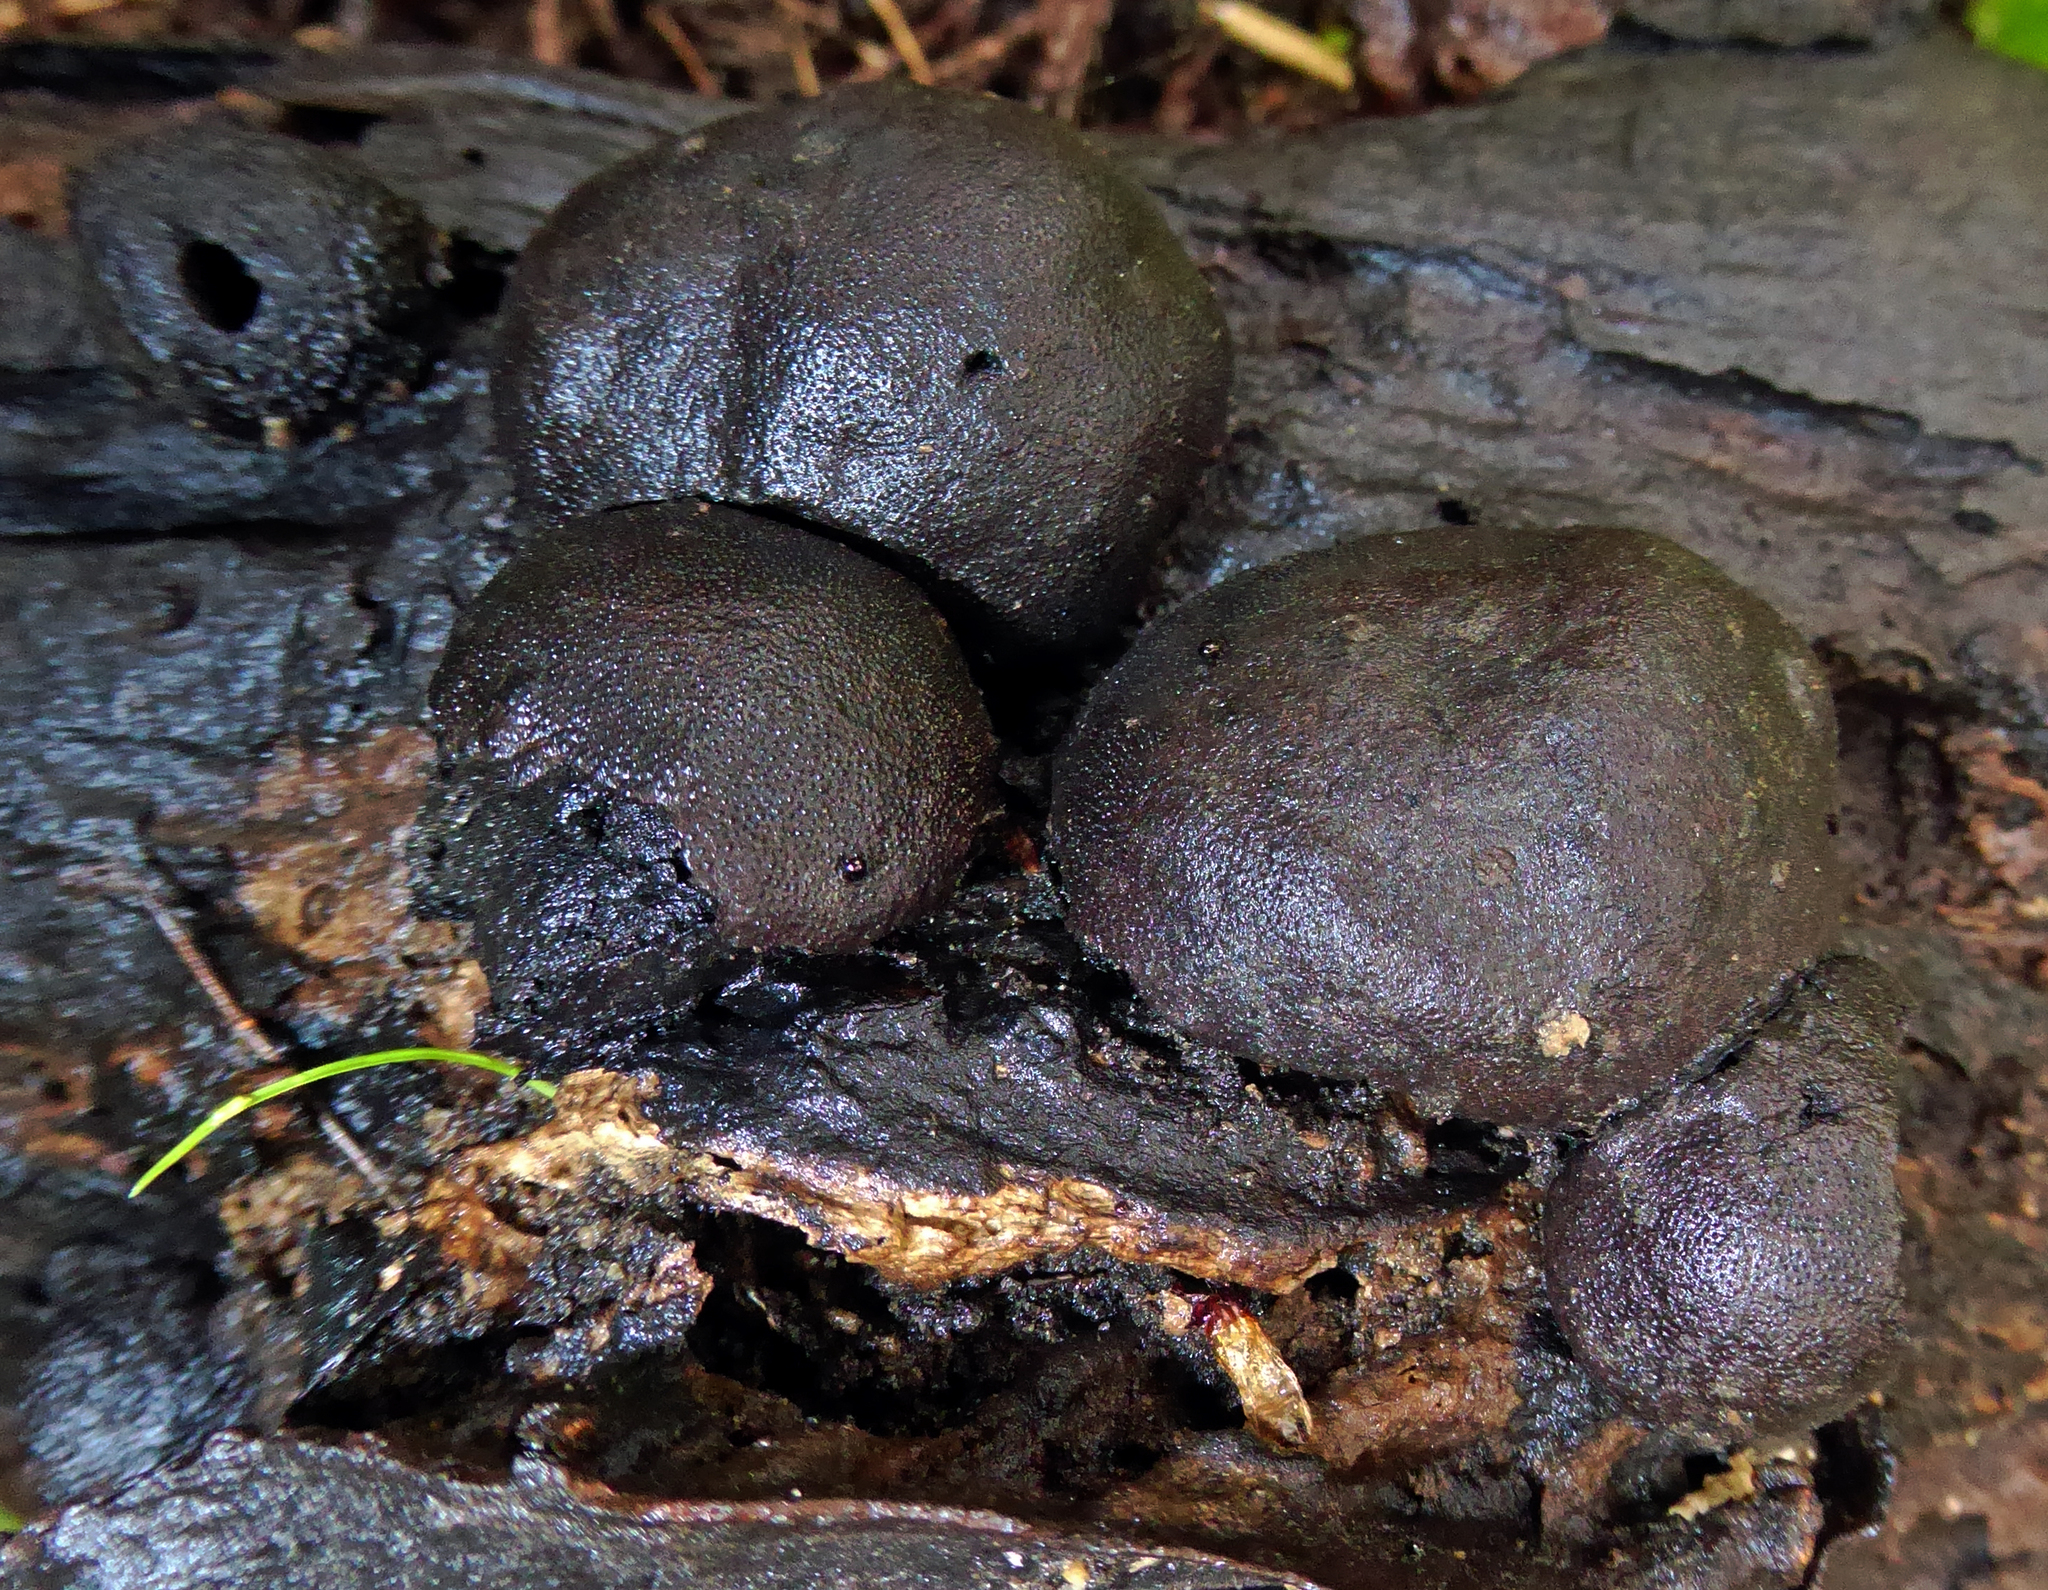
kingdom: Fungi
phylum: Ascomycota
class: Sordariomycetes
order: Xylariales
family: Hypoxylaceae
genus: Daldinia
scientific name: Daldinia
